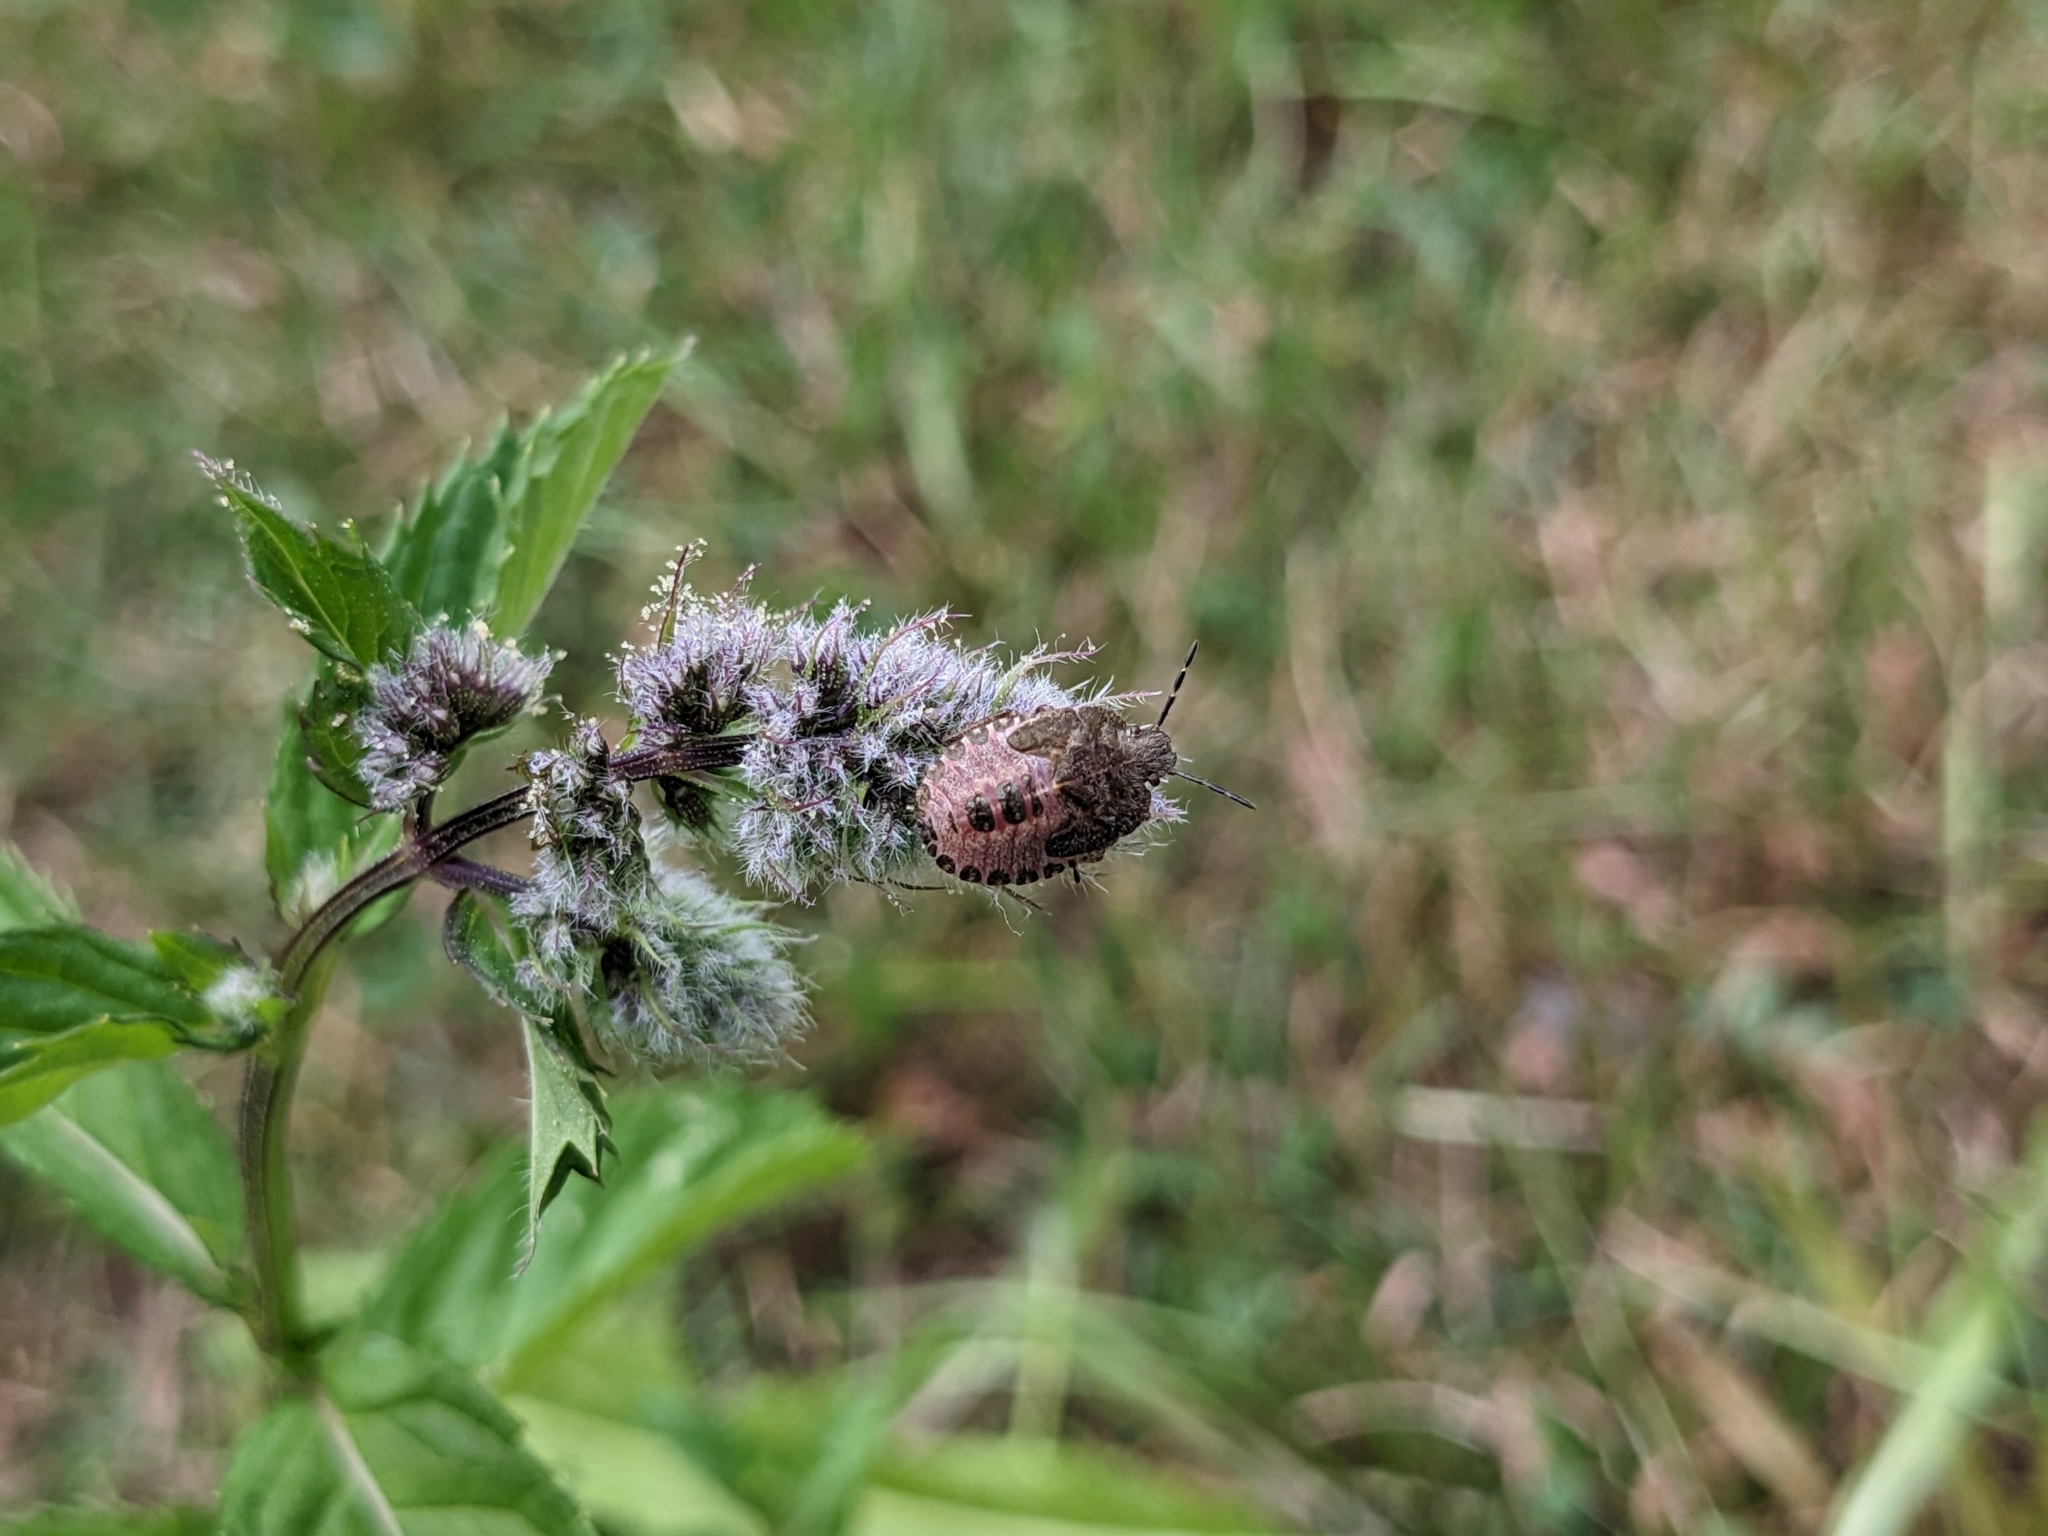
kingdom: Animalia
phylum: Arthropoda
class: Insecta
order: Hemiptera
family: Pentatomidae
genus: Dolycoris
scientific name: Dolycoris baccarum
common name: Sloe bug
